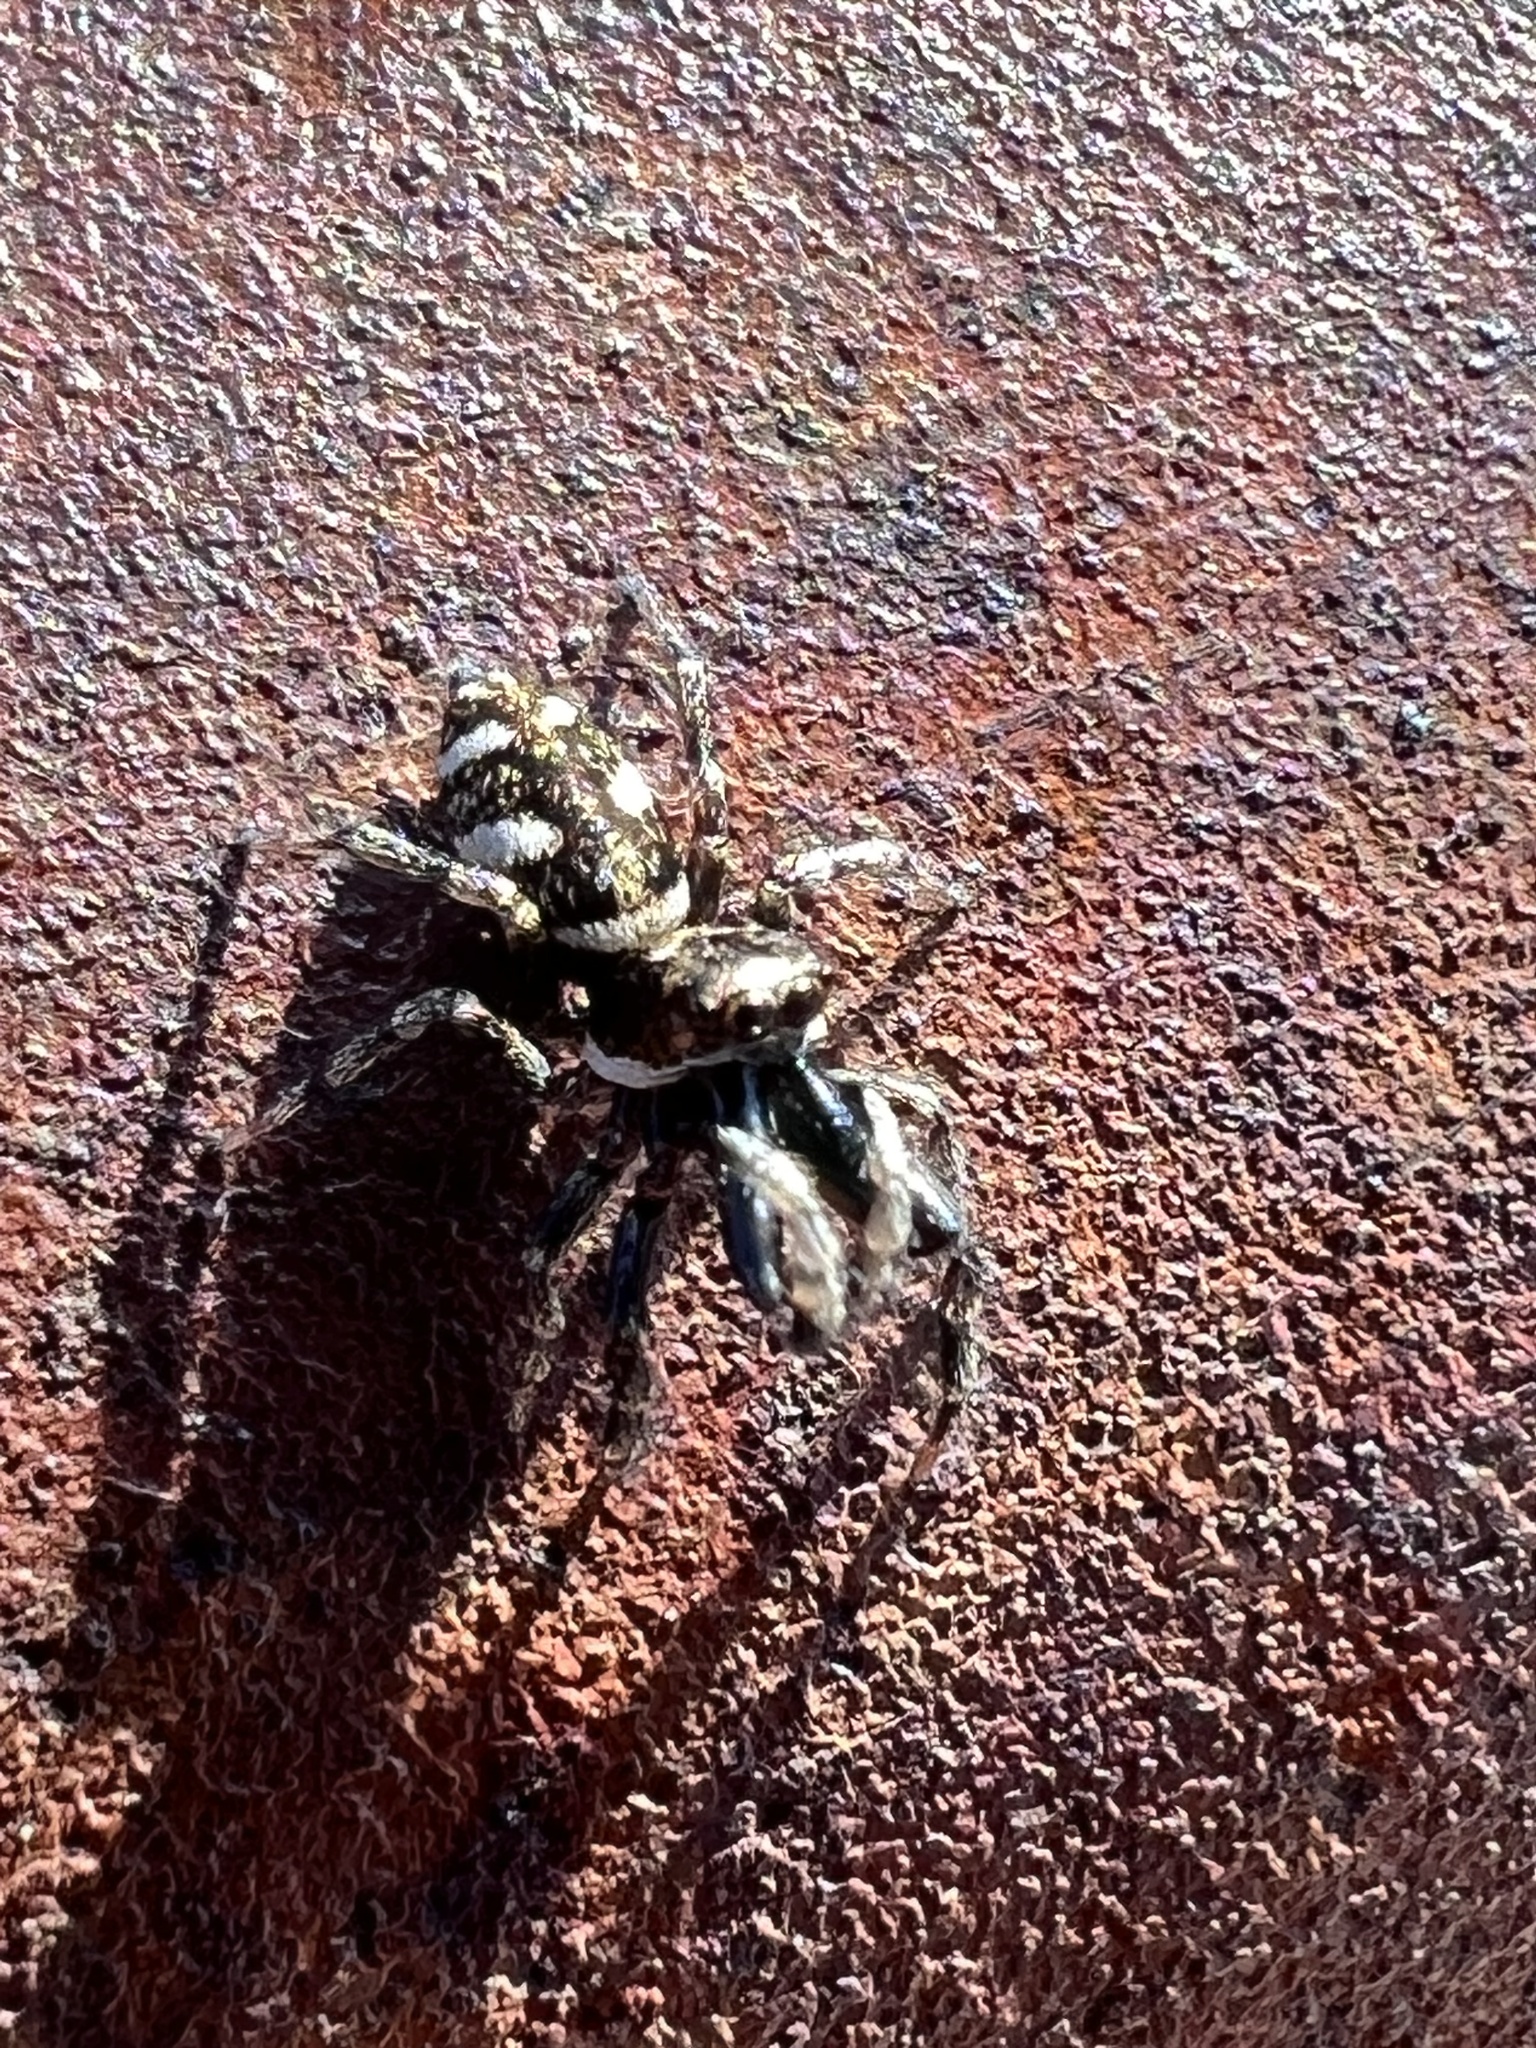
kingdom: Animalia
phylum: Arthropoda
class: Arachnida
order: Araneae
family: Salticidae
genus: Salticus
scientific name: Salticus scenicus
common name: Zebra jumper
